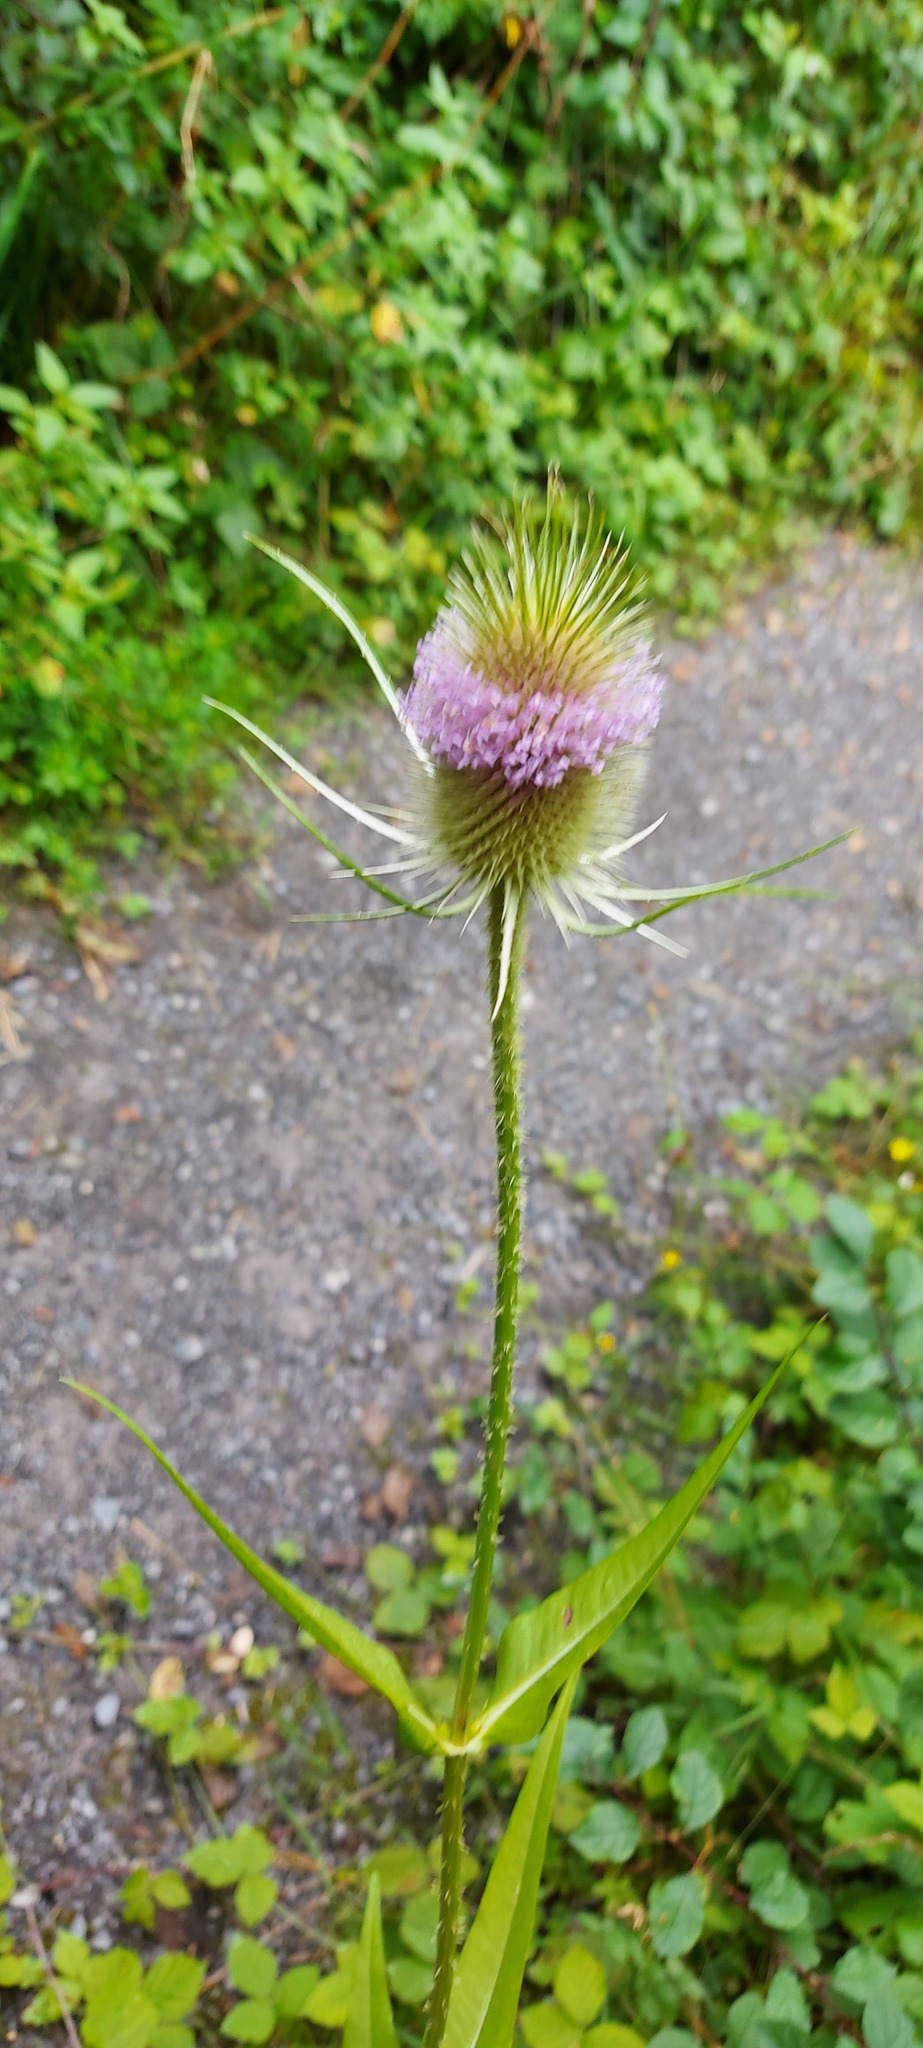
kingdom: Plantae
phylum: Tracheophyta
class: Magnoliopsida
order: Dipsacales
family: Caprifoliaceae
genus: Dipsacus
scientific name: Dipsacus fullonum
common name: Teasel
